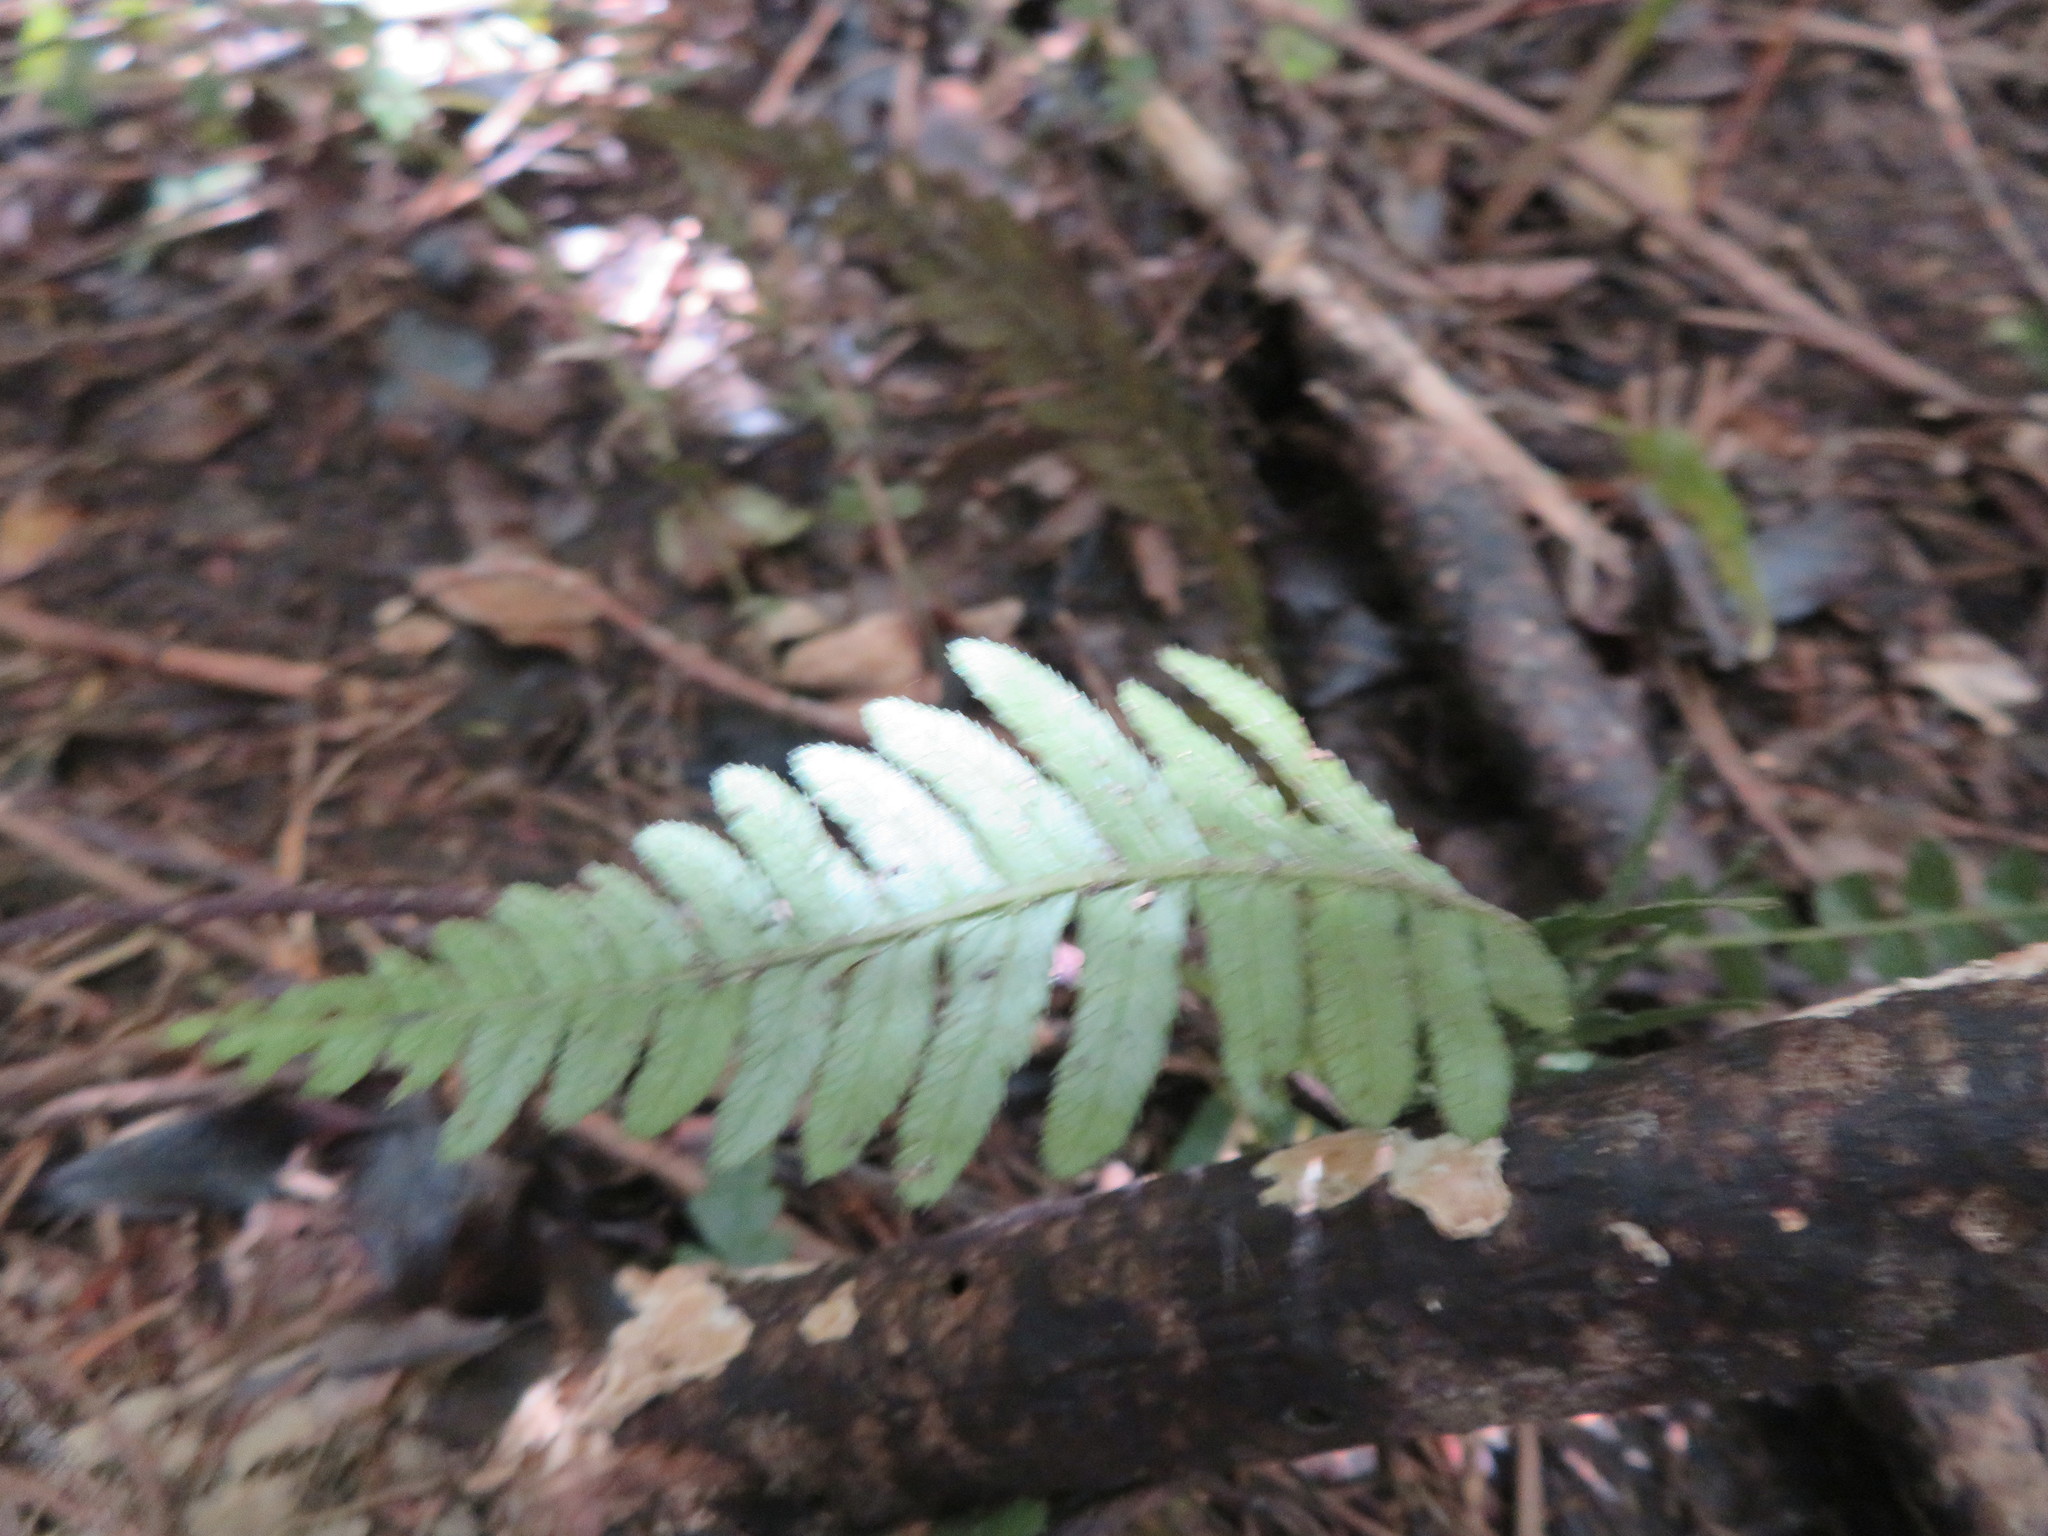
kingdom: Plantae
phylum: Tracheophyta
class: Polypodiopsida
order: Polypodiales
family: Blechnaceae
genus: Doodia
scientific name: Doodia australis
